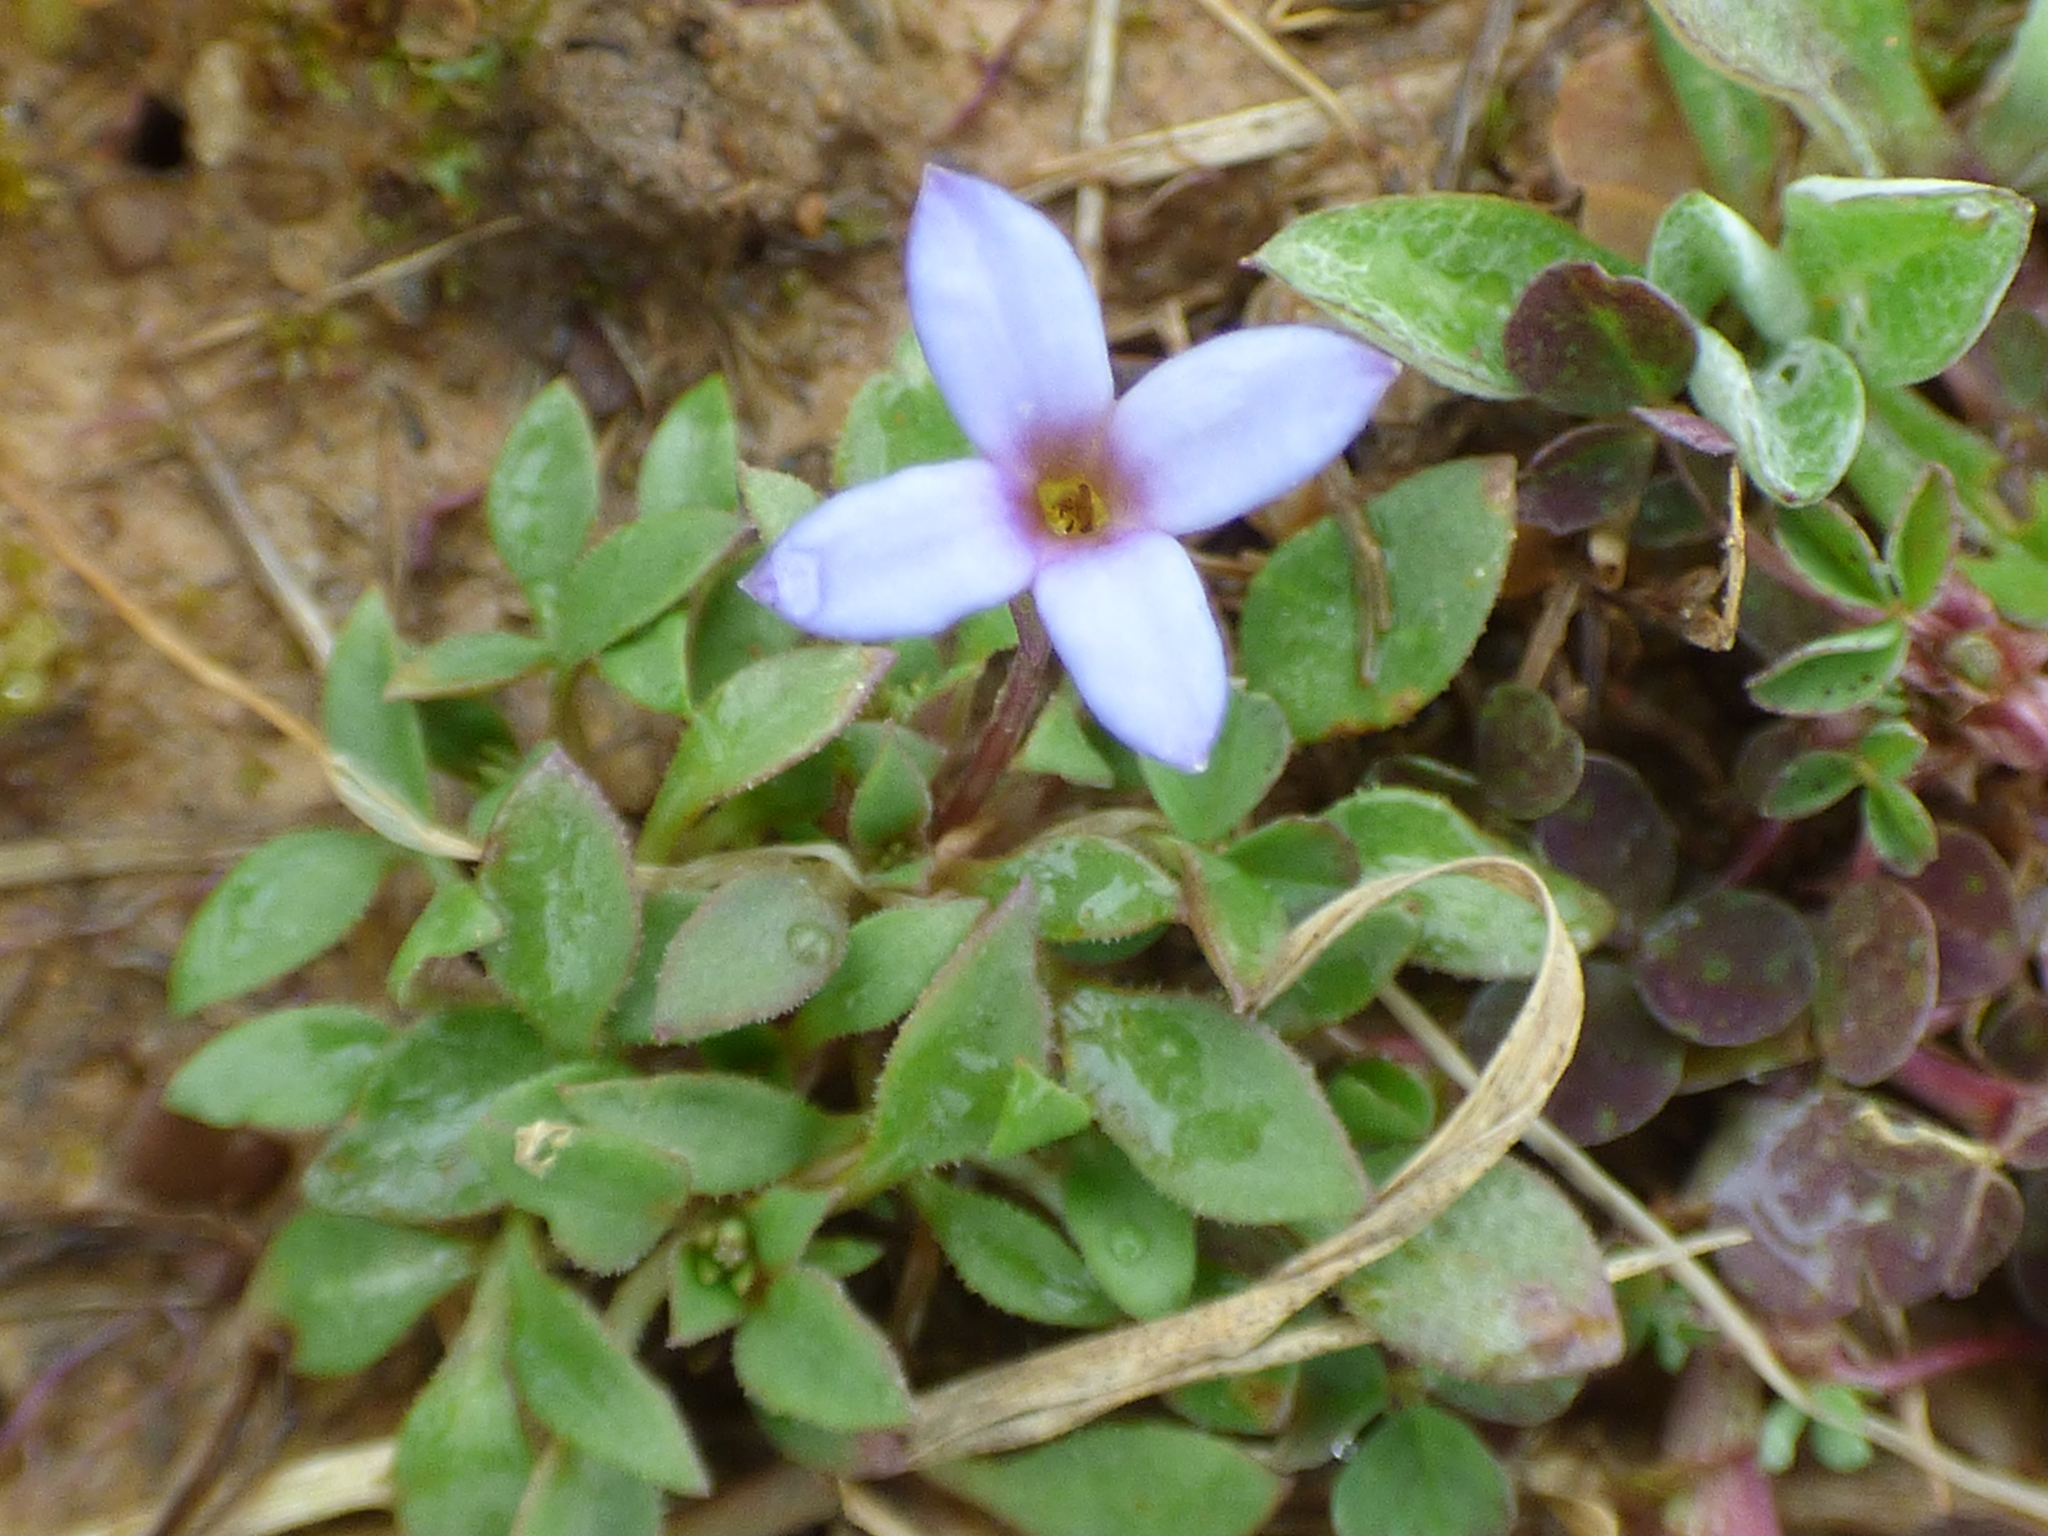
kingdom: Plantae
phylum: Tracheophyta
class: Magnoliopsida
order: Gentianales
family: Rubiaceae
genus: Houstonia
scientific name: Houstonia pusilla
